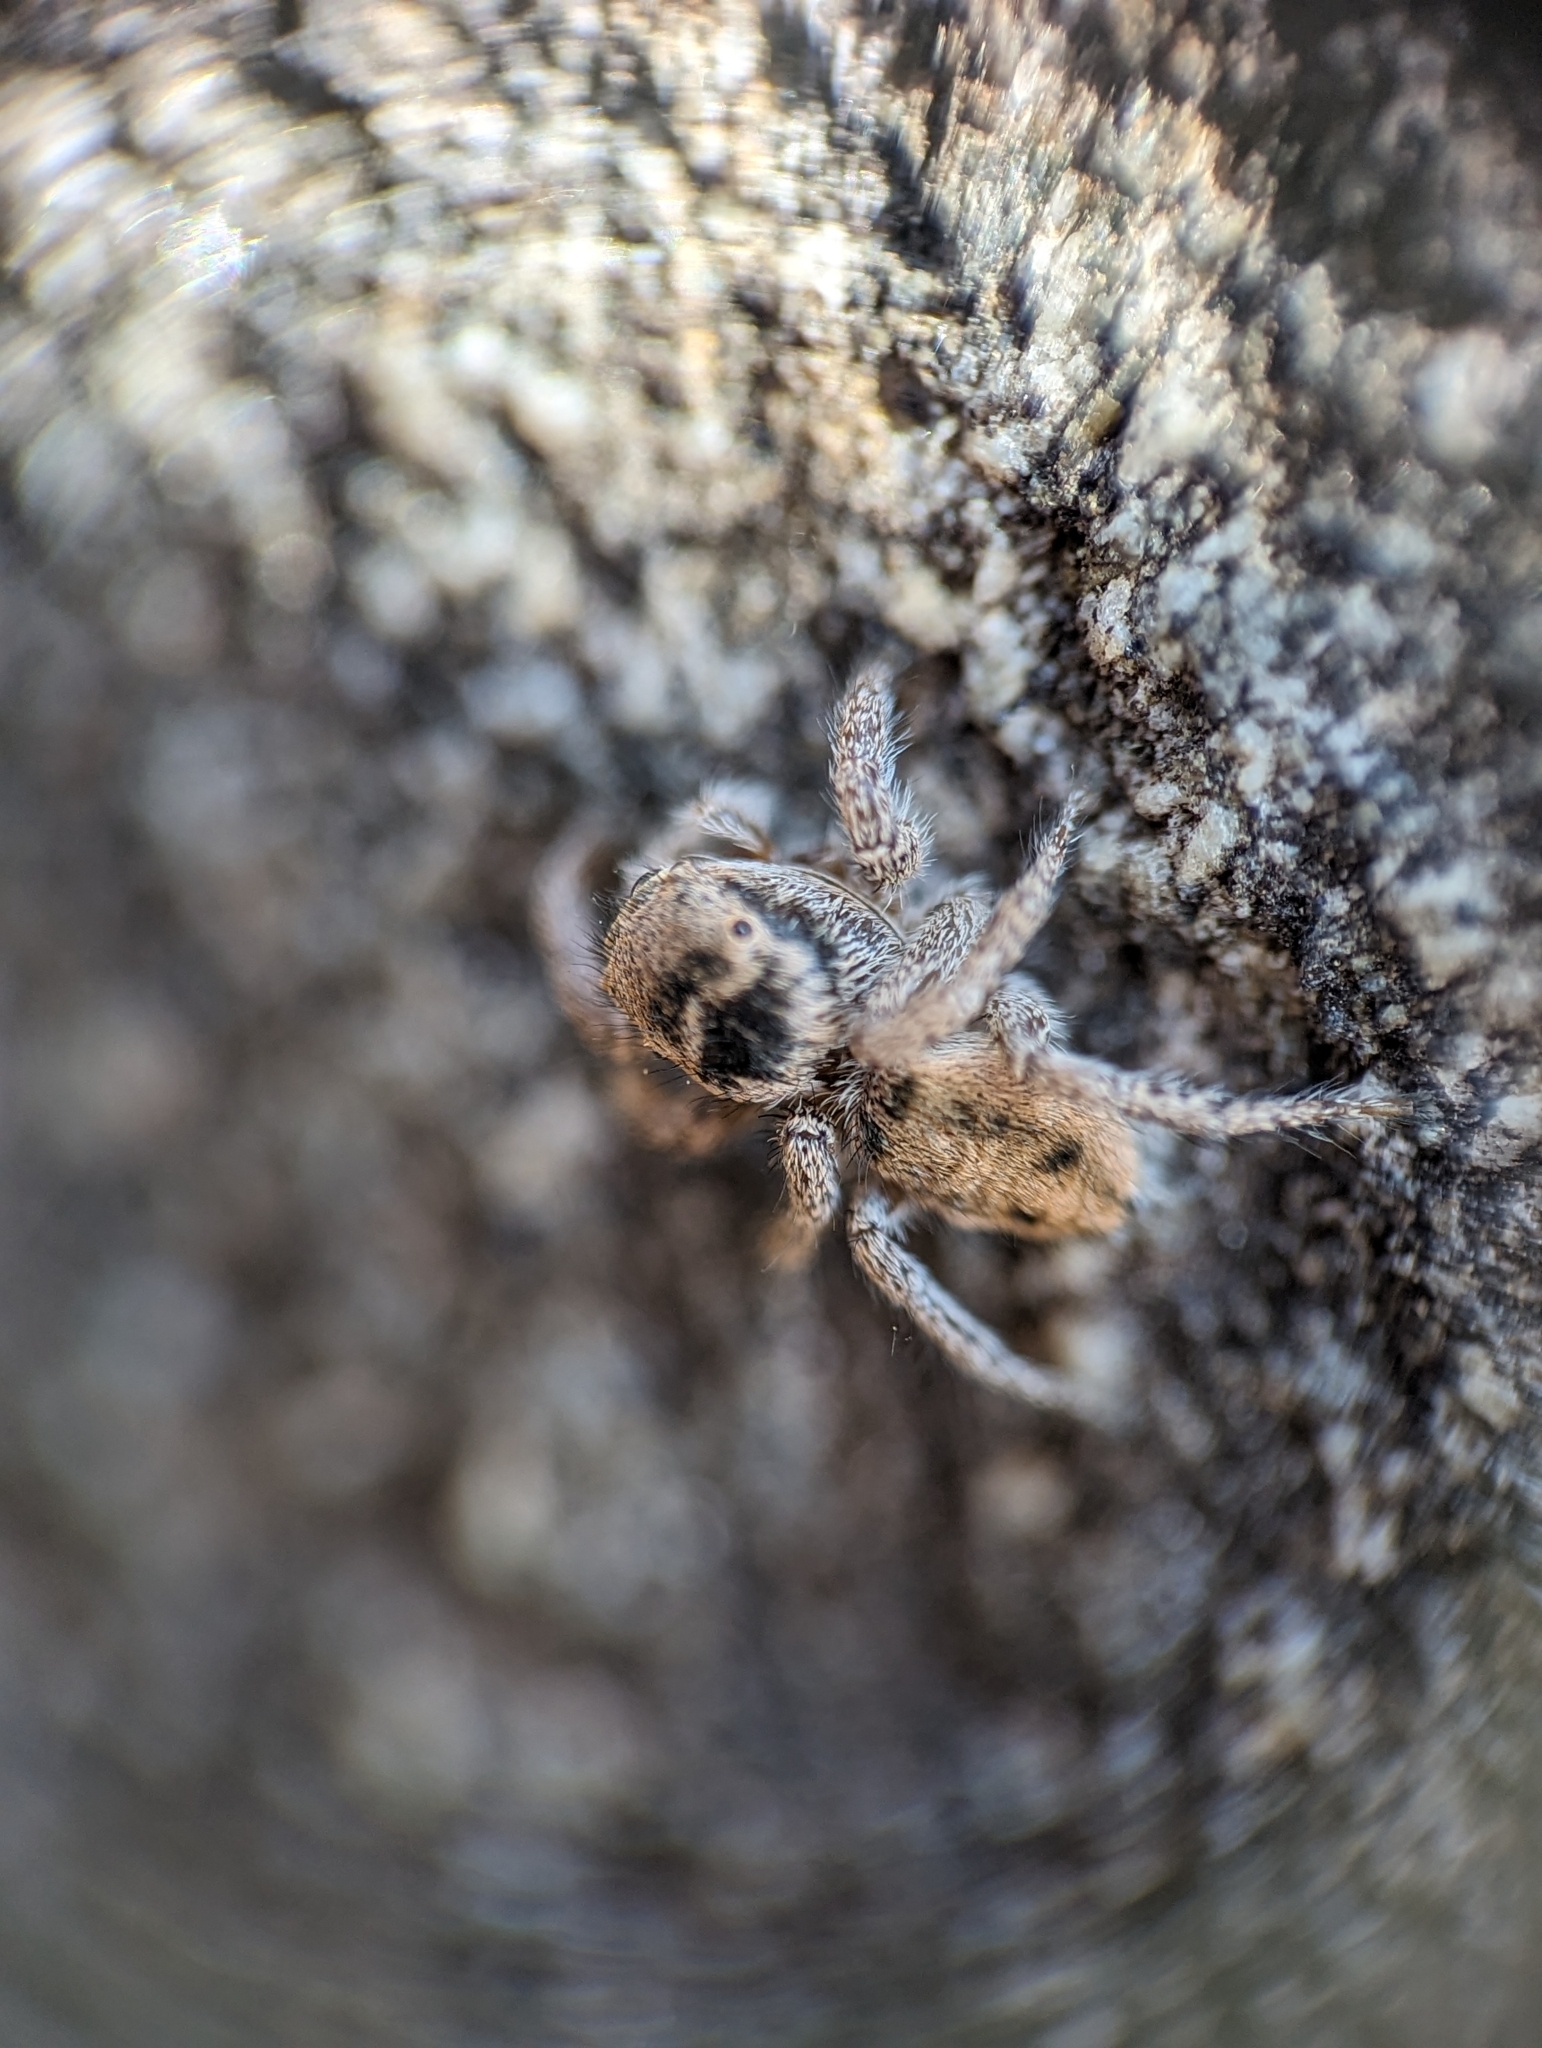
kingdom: Animalia
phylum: Arthropoda
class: Arachnida
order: Araneae
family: Salticidae
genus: Habronattus
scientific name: Habronattus borealis
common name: Boreal paradise spider
